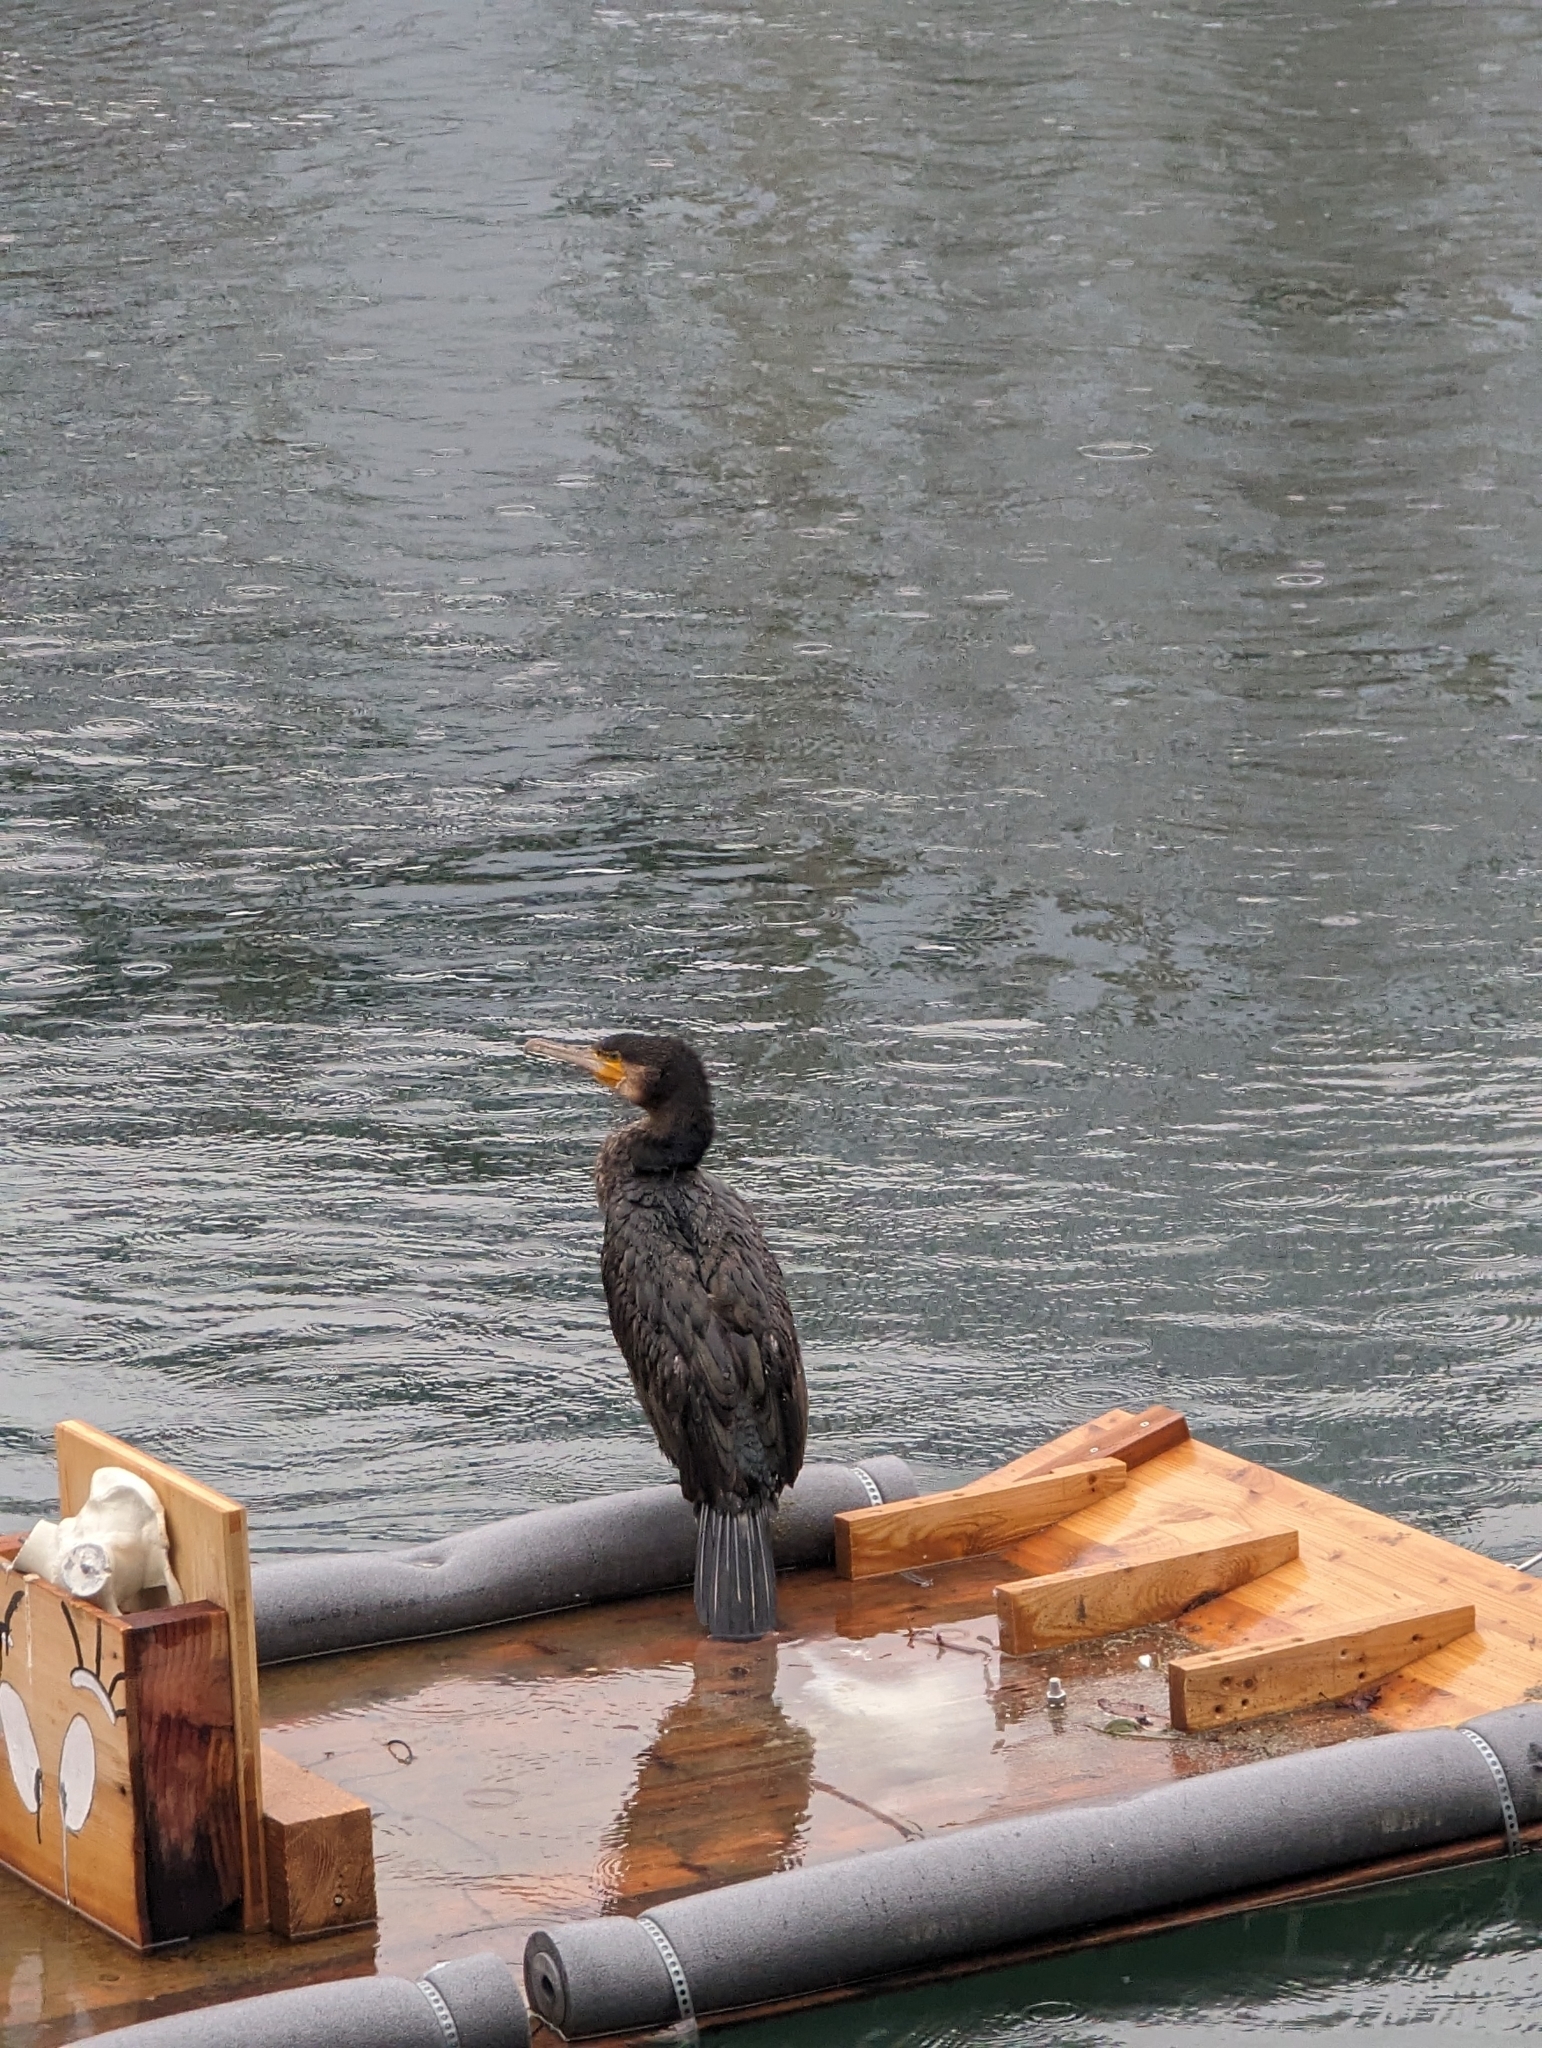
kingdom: Animalia
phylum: Chordata
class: Aves
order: Suliformes
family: Phalacrocoracidae
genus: Phalacrocorax
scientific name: Phalacrocorax carbo
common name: Great cormorant
